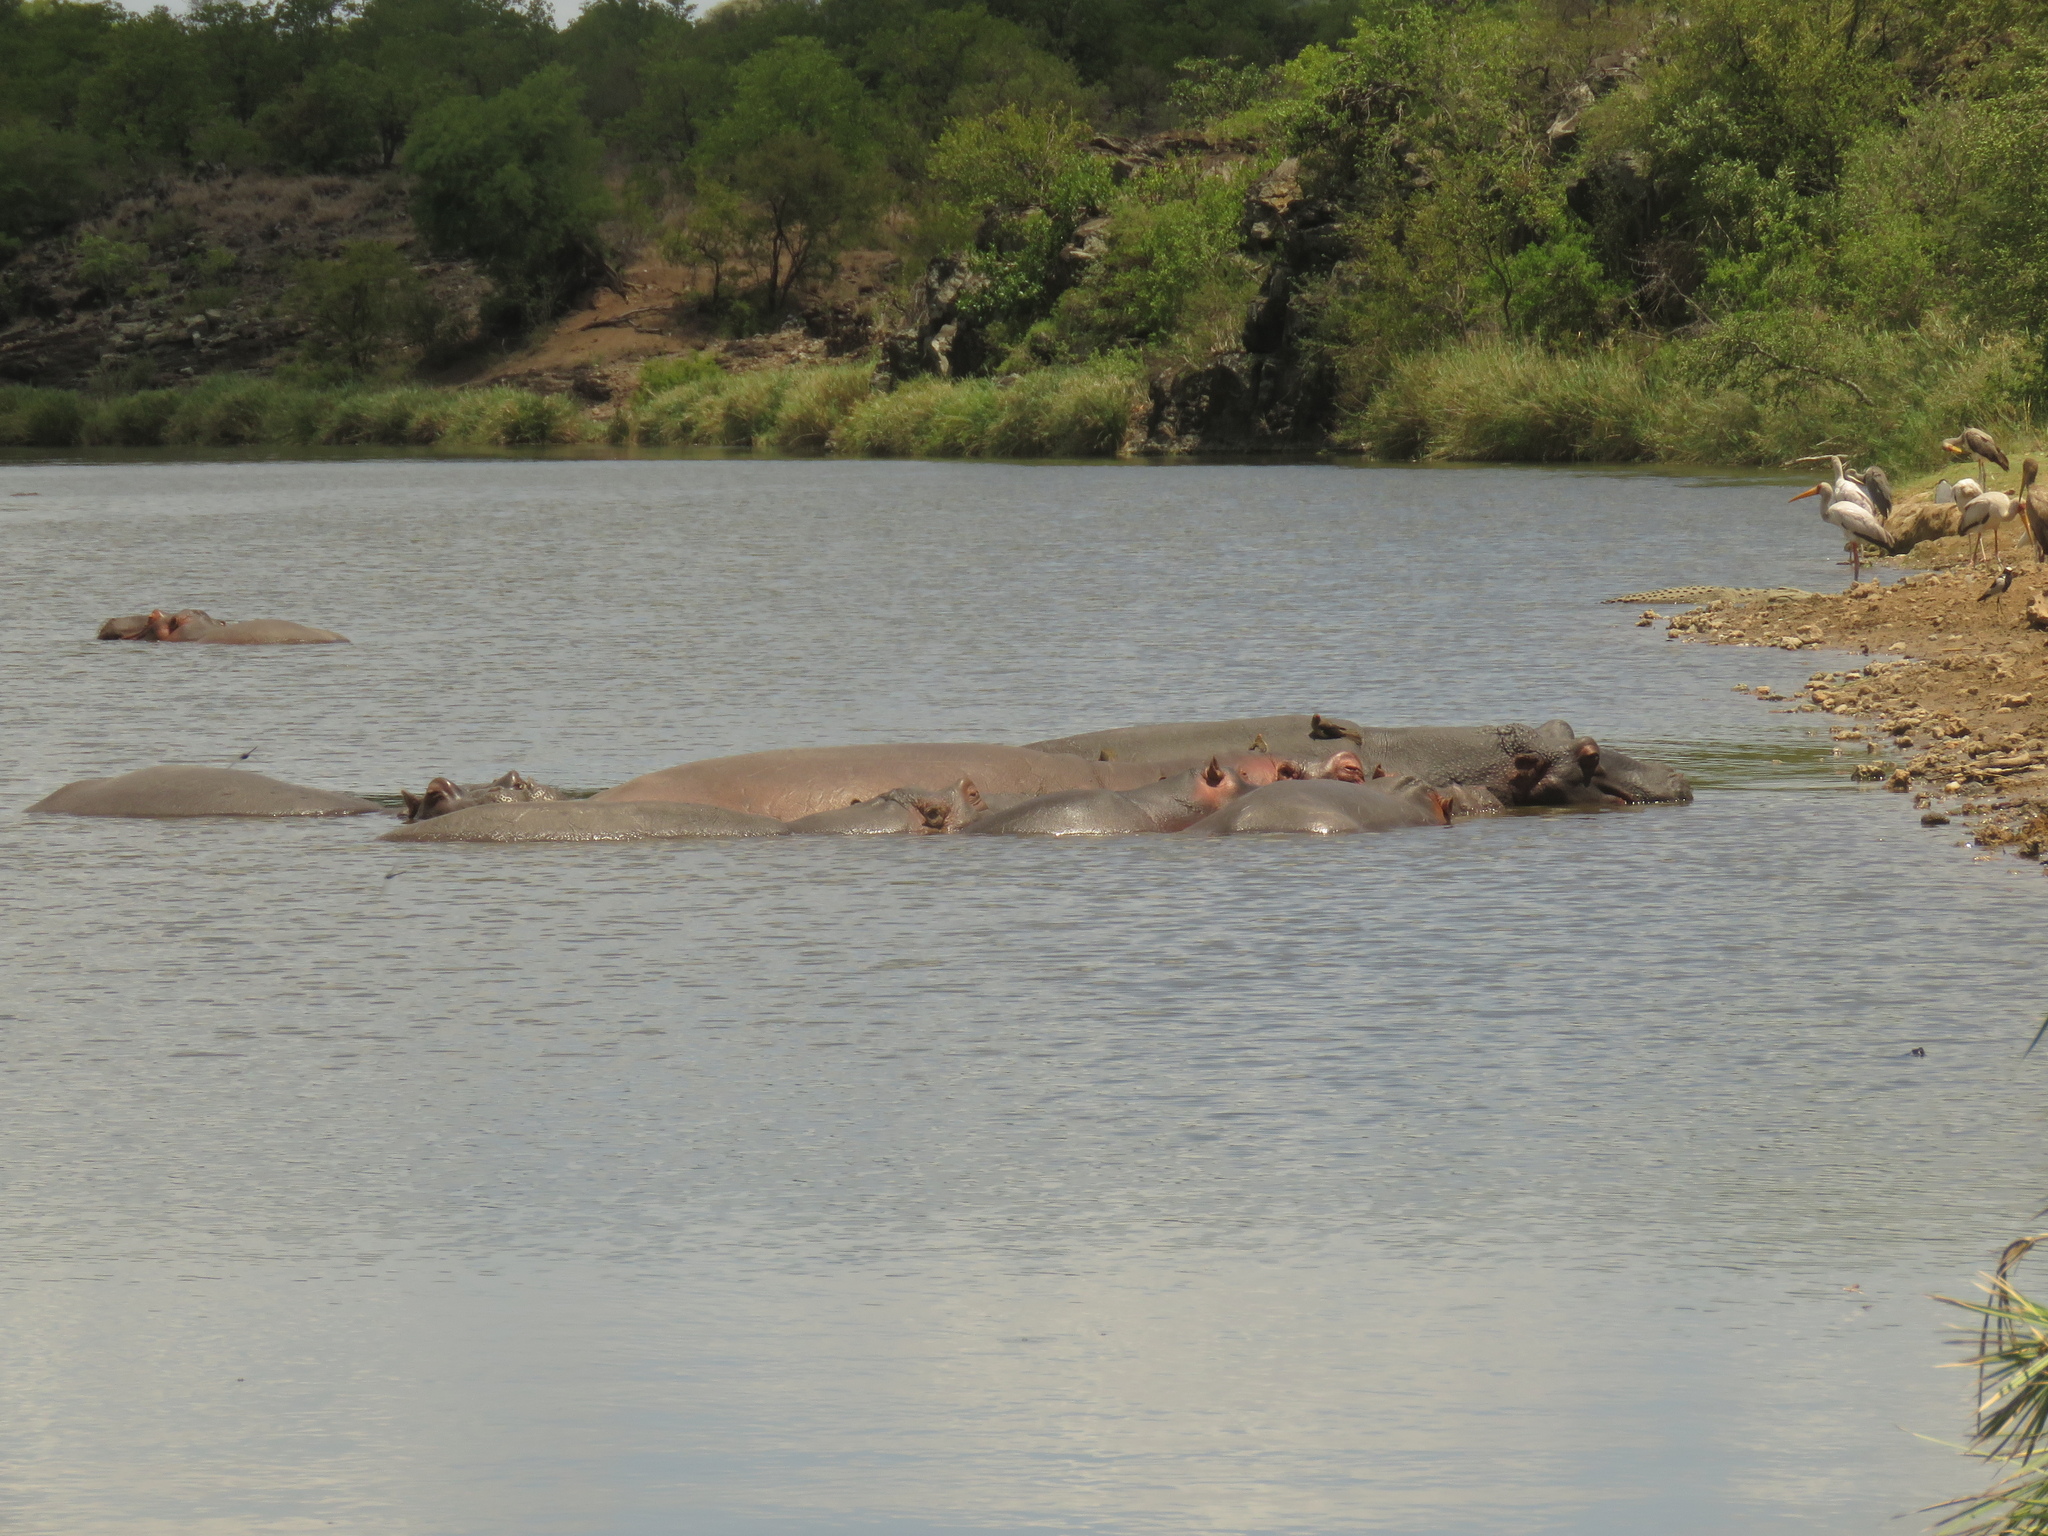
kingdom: Animalia
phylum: Chordata
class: Mammalia
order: Artiodactyla
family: Hippopotamidae
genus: Hippopotamus
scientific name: Hippopotamus amphibius
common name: Common hippopotamus
